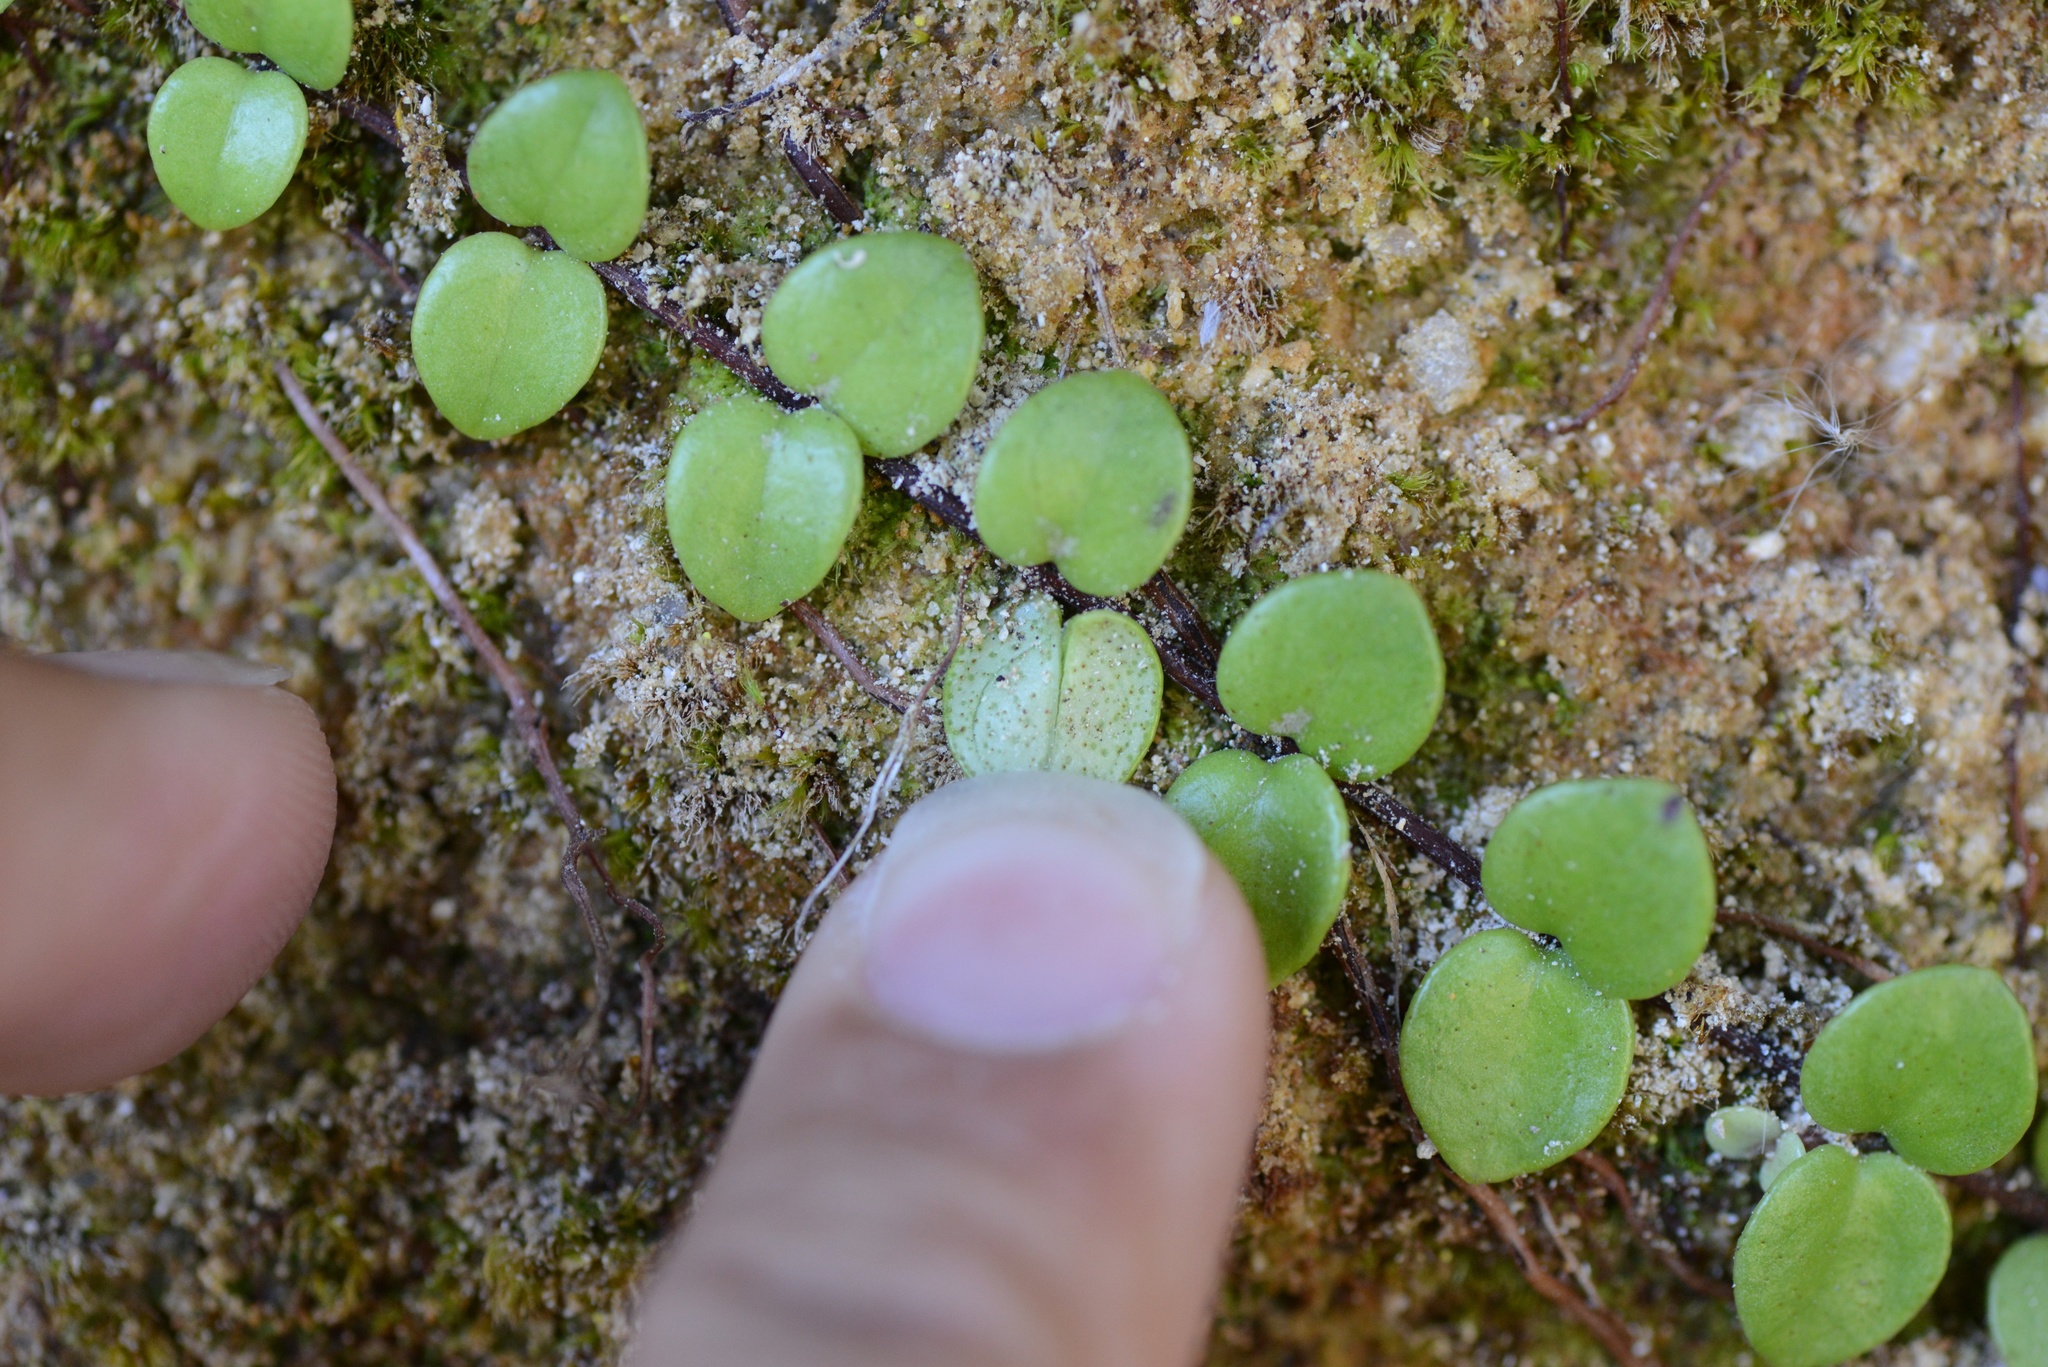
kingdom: Plantae
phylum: Tracheophyta
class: Magnoliopsida
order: Myrtales
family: Myrtaceae
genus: Metrosideros
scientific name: Metrosideros perforata
